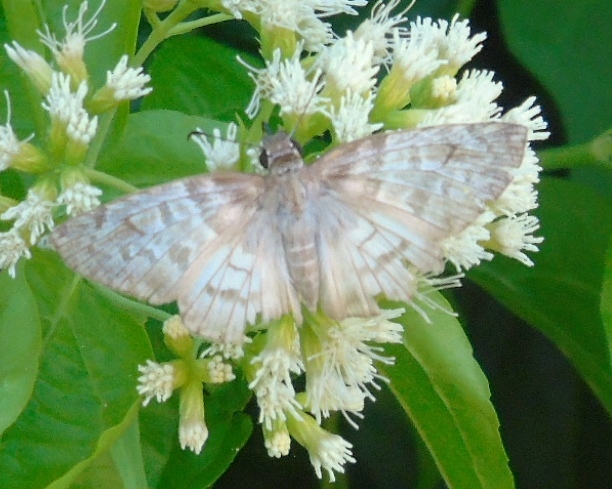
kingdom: Animalia
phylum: Arthropoda
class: Insecta
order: Lepidoptera
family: Hesperiidae
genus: Mylon
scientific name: Mylon pelopidas
